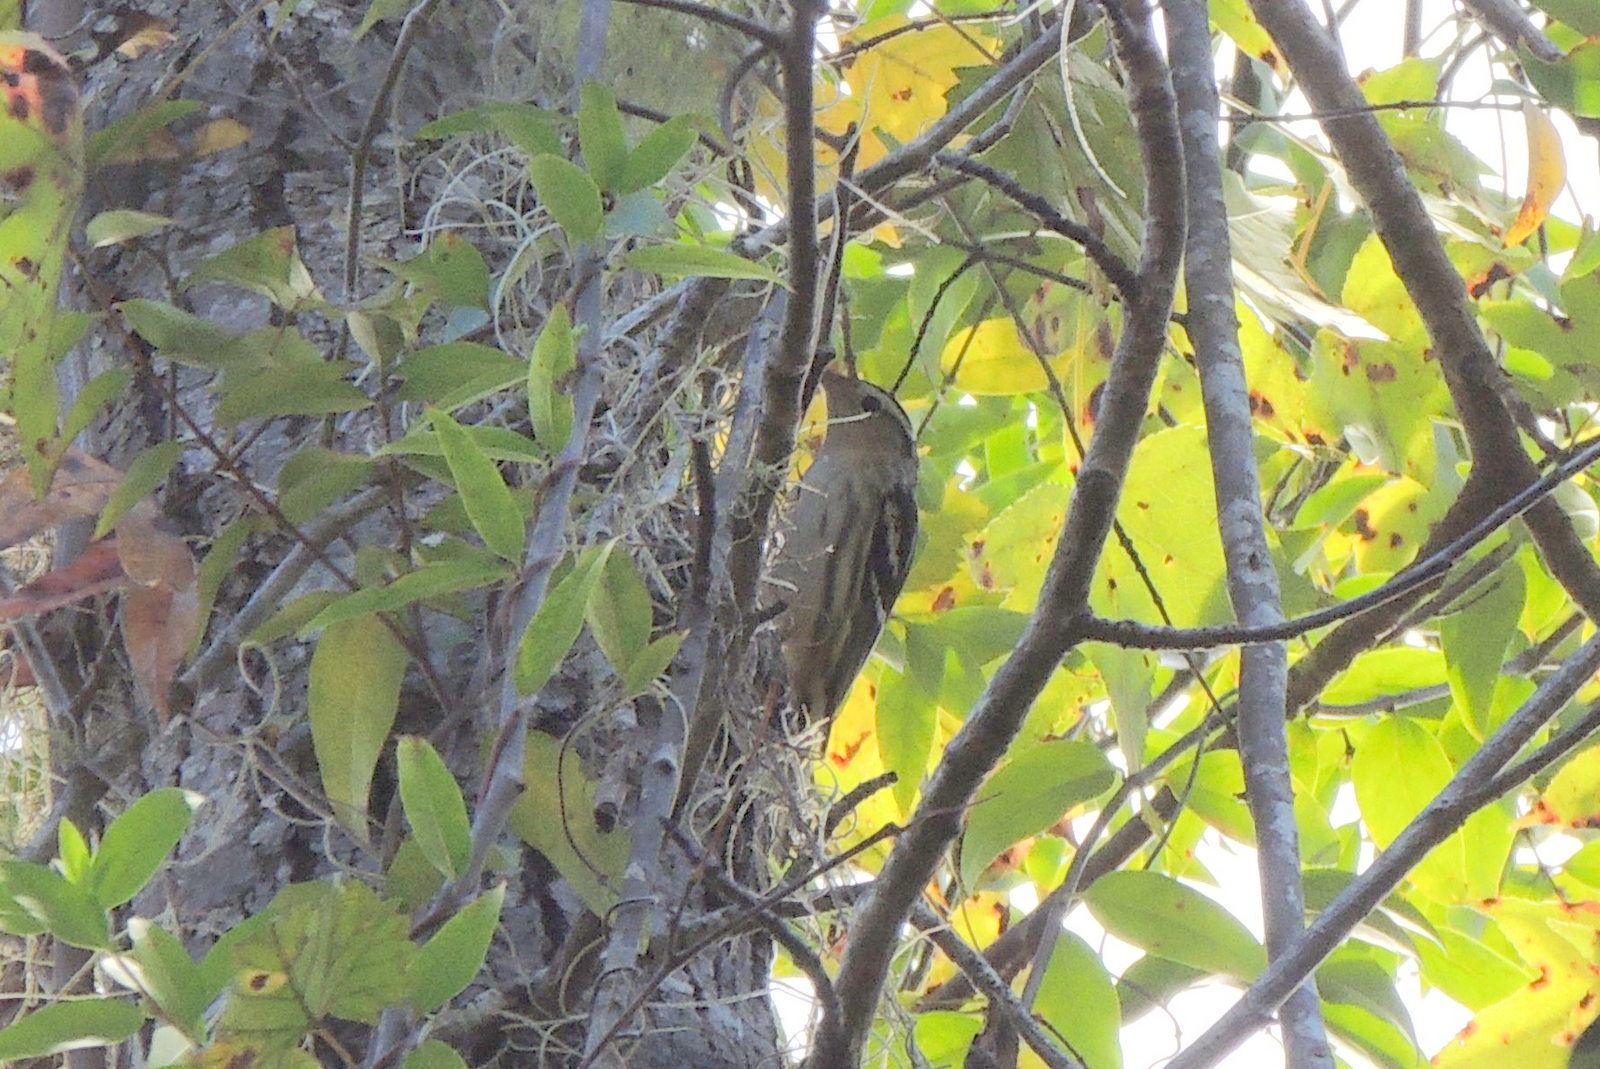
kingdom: Animalia
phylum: Chordata
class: Aves
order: Passeriformes
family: Parulidae
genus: Mniotilta
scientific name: Mniotilta varia
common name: Black-and-white warbler
